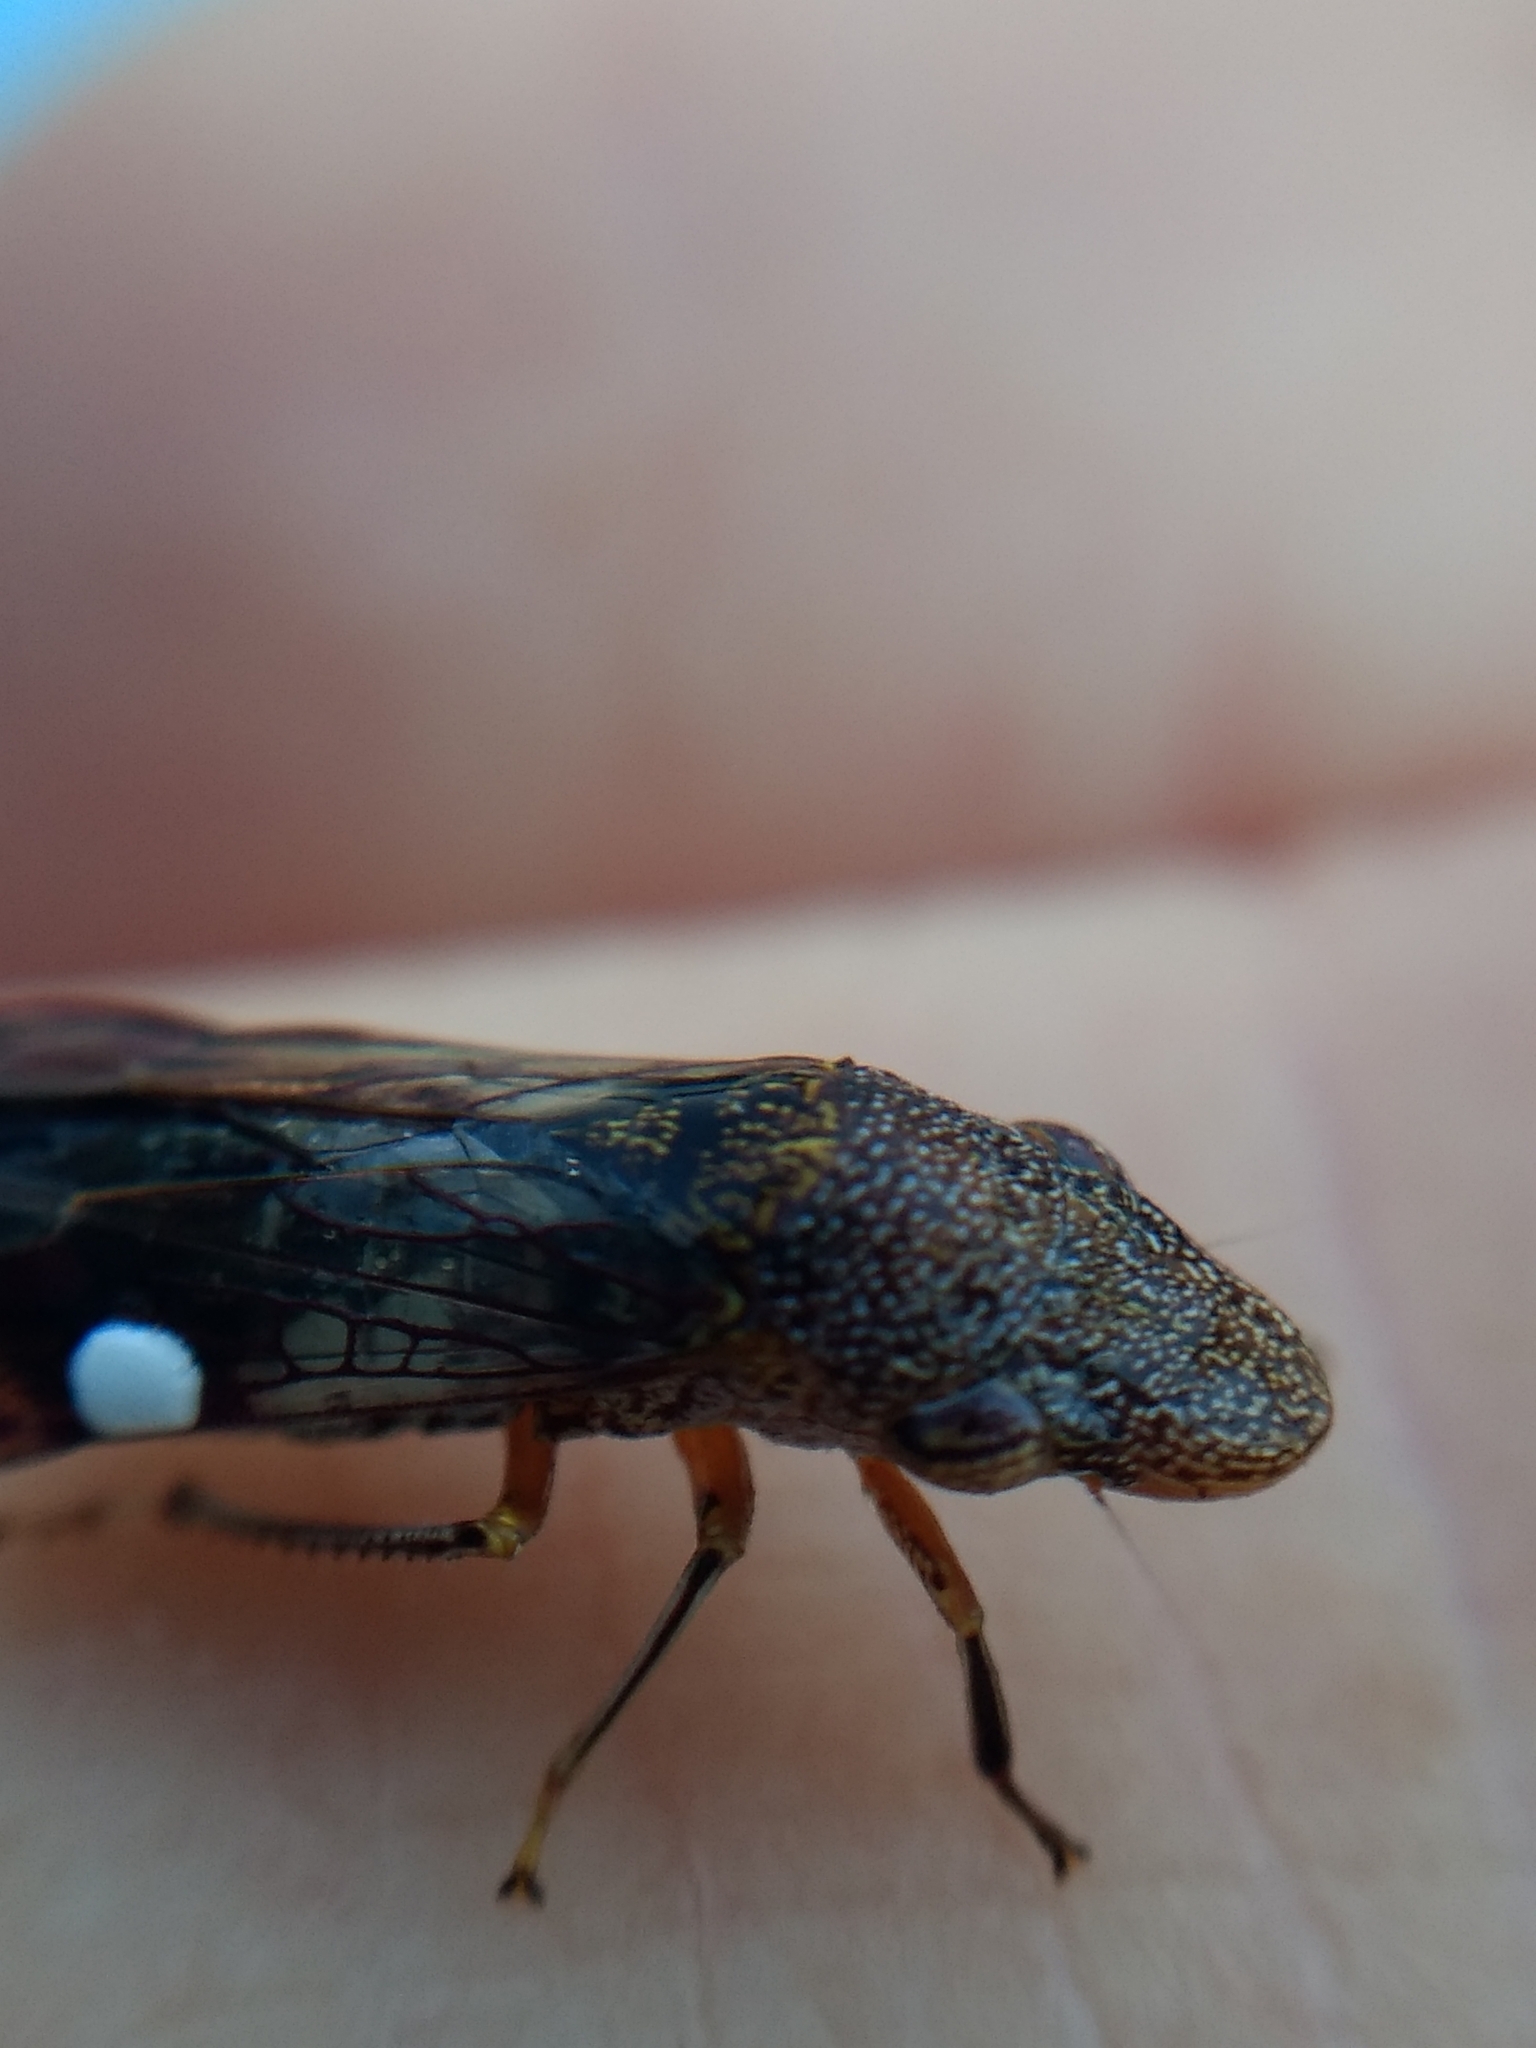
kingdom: Animalia
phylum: Arthropoda
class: Insecta
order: Hemiptera
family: Cicadellidae
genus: Homalodisca
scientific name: Homalodisca vitripennis
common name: Glassy-winged sharpshooter
